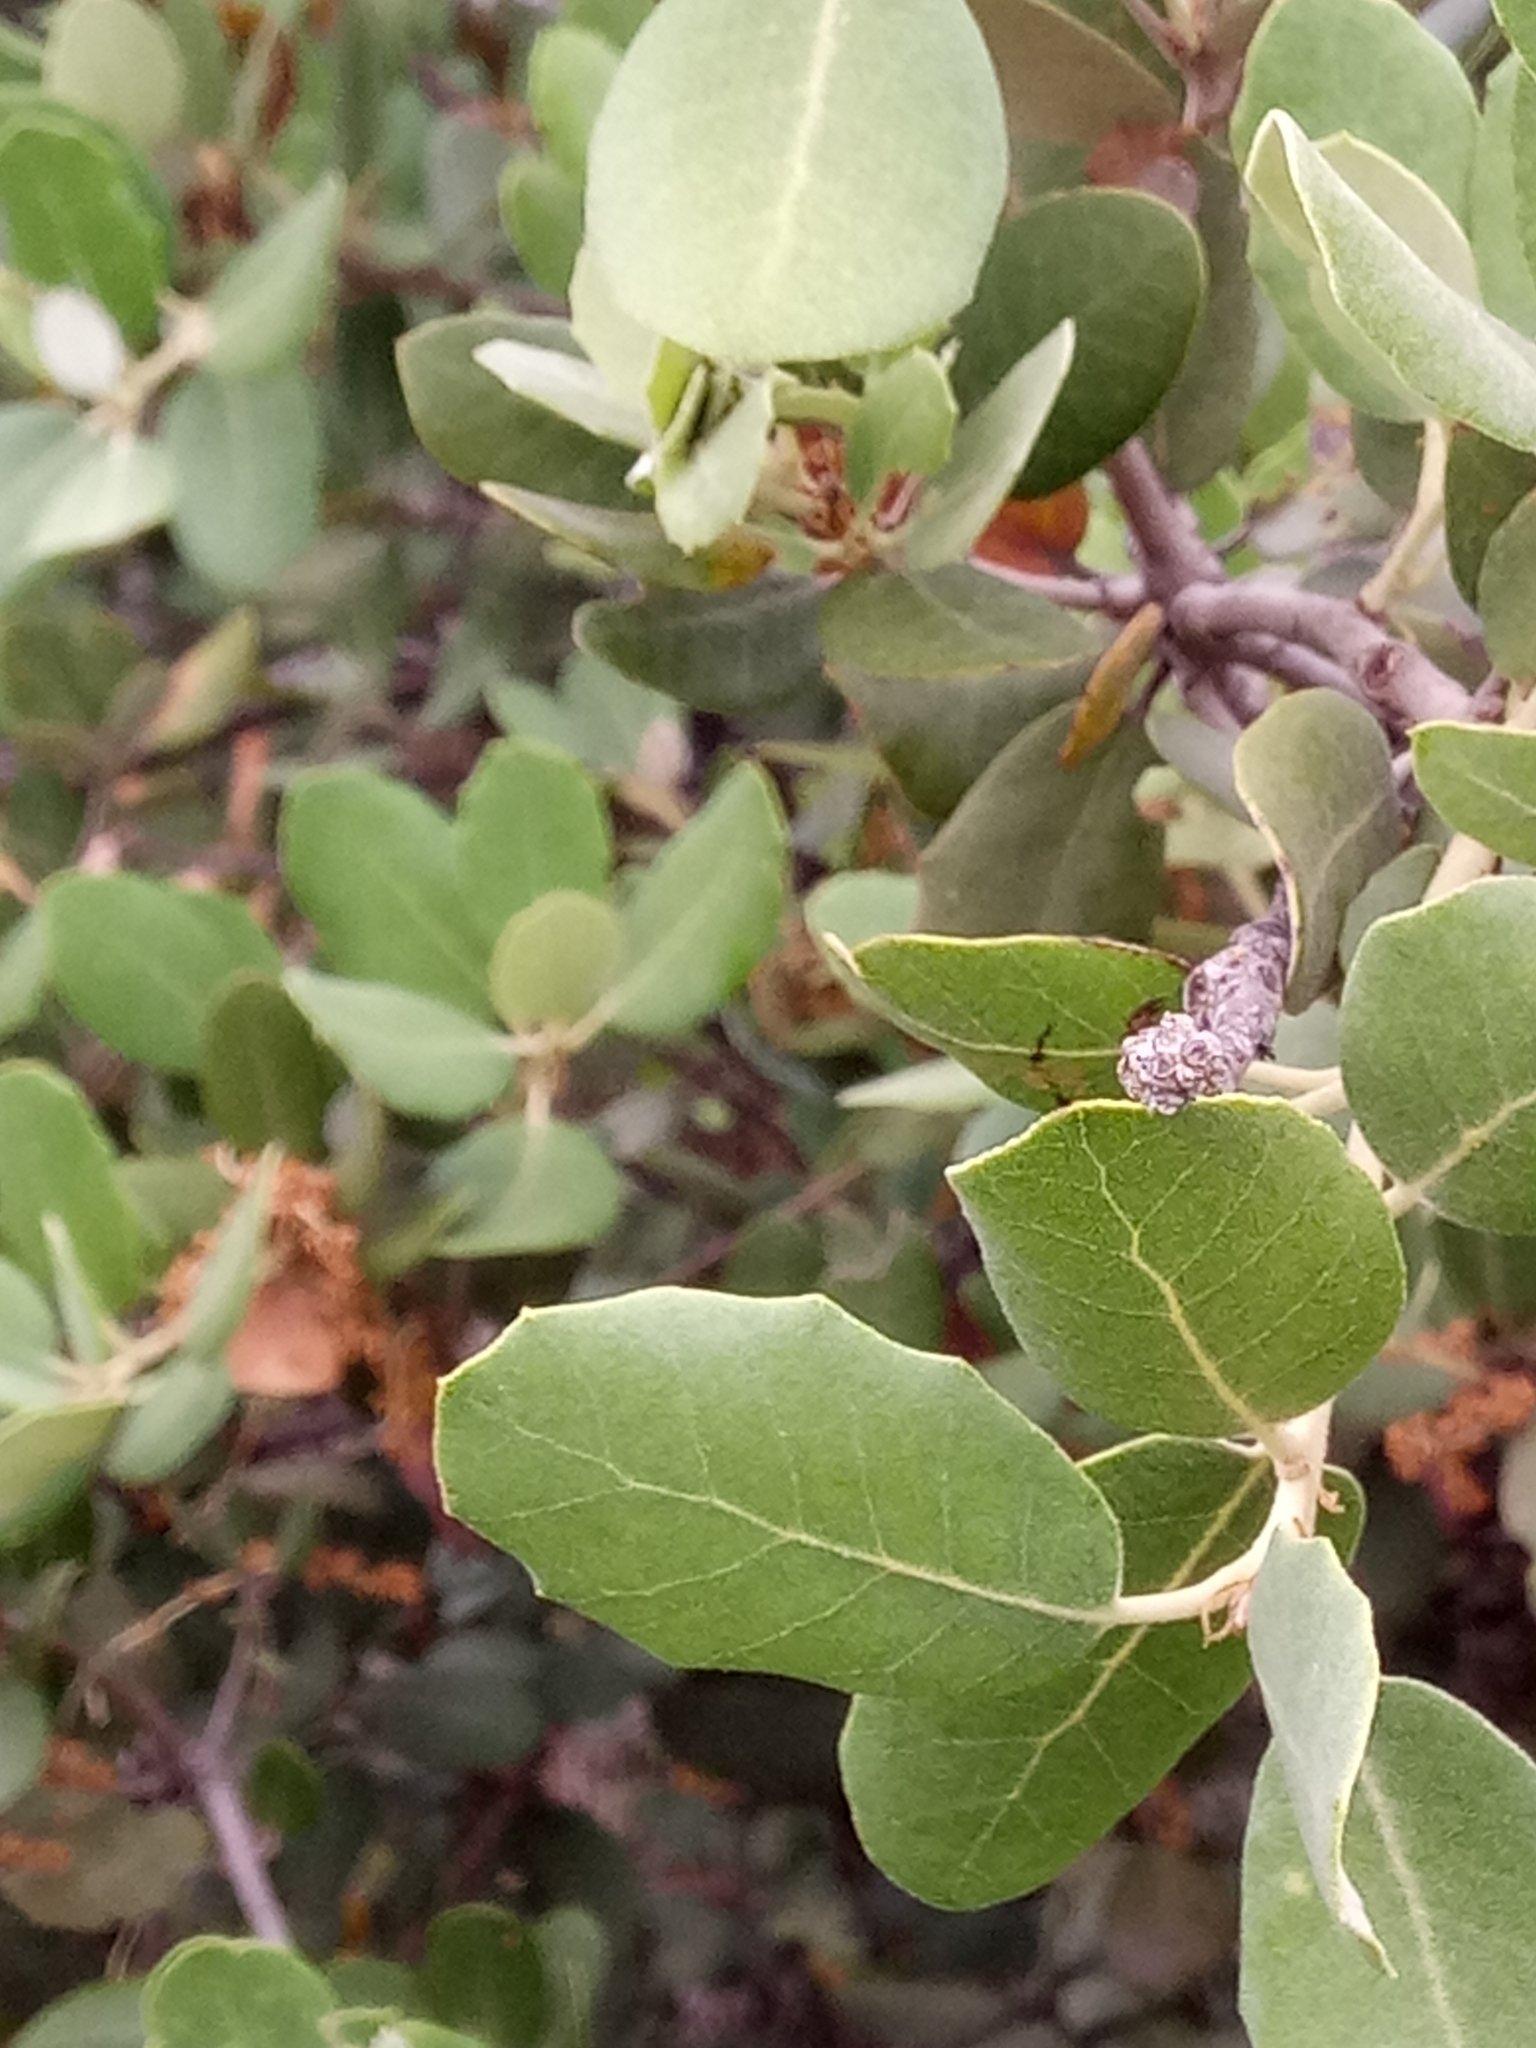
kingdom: Plantae
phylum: Tracheophyta
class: Magnoliopsida
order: Fagales
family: Fagaceae
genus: Quercus
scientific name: Quercus rotundifolia
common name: Holm oak
